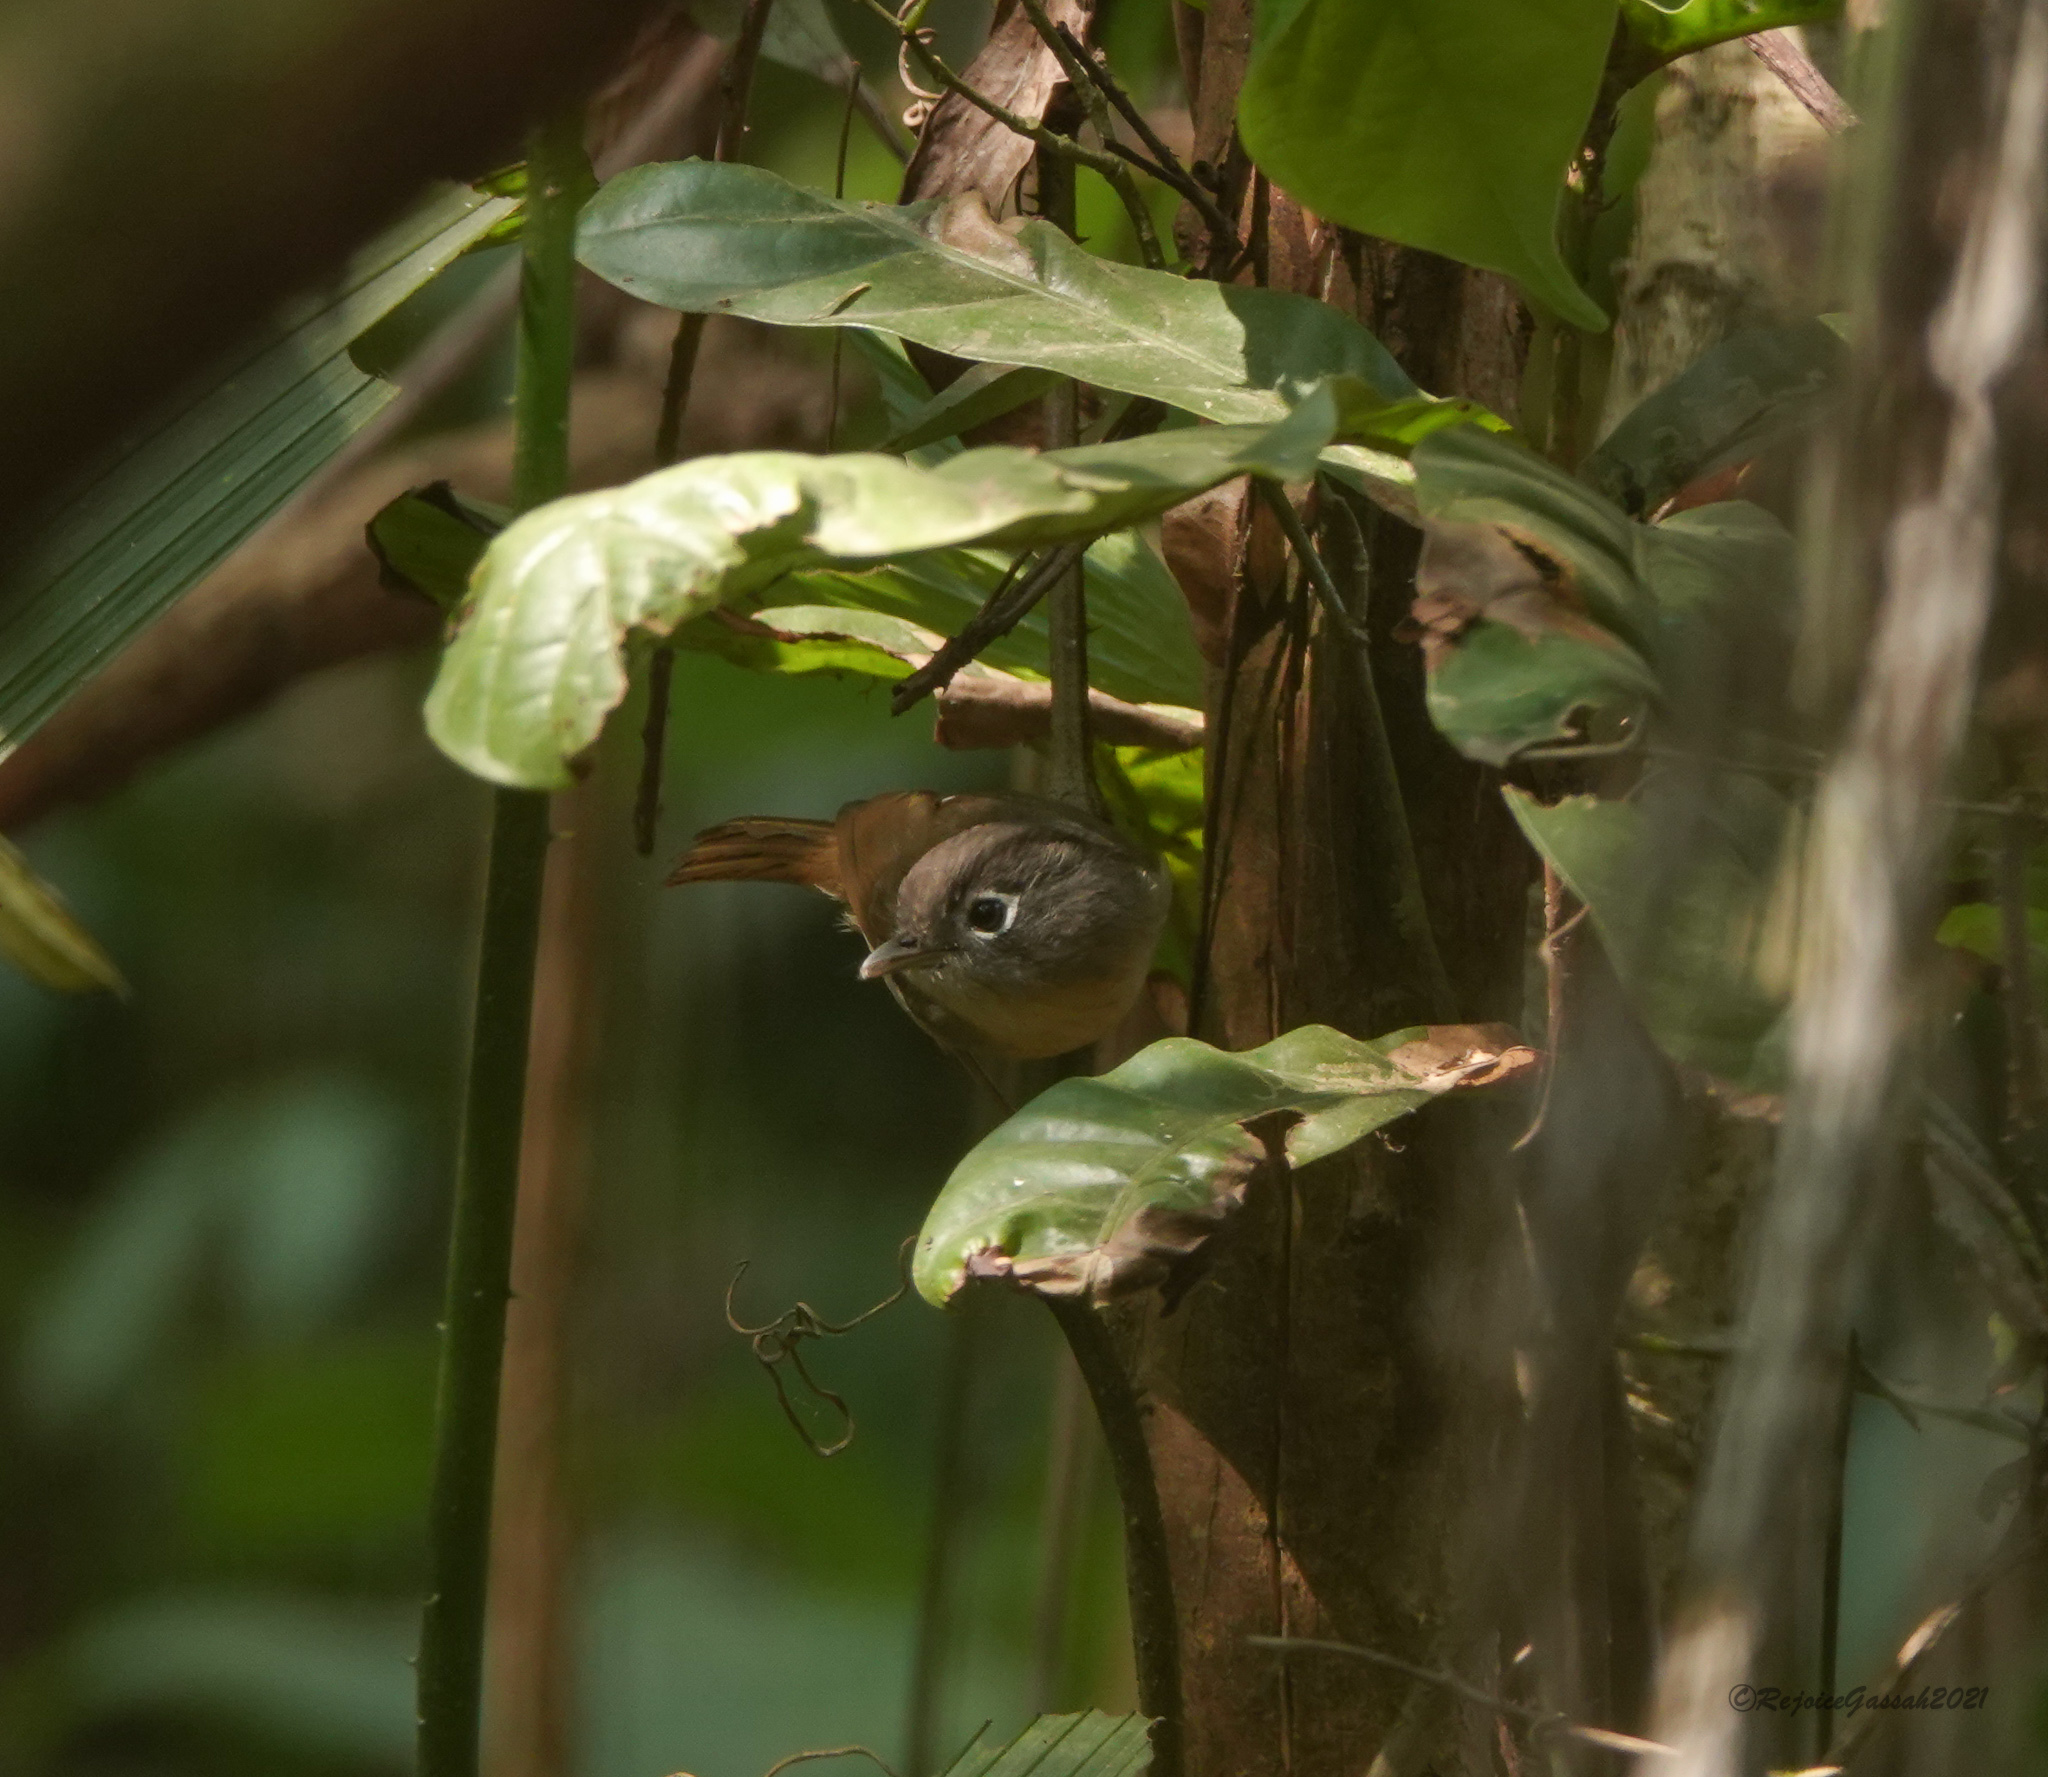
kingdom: Animalia
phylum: Chordata
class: Aves
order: Passeriformes
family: Pellorneidae
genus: Alcippe
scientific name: Alcippe nipalensis
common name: Nepal fulvetta
